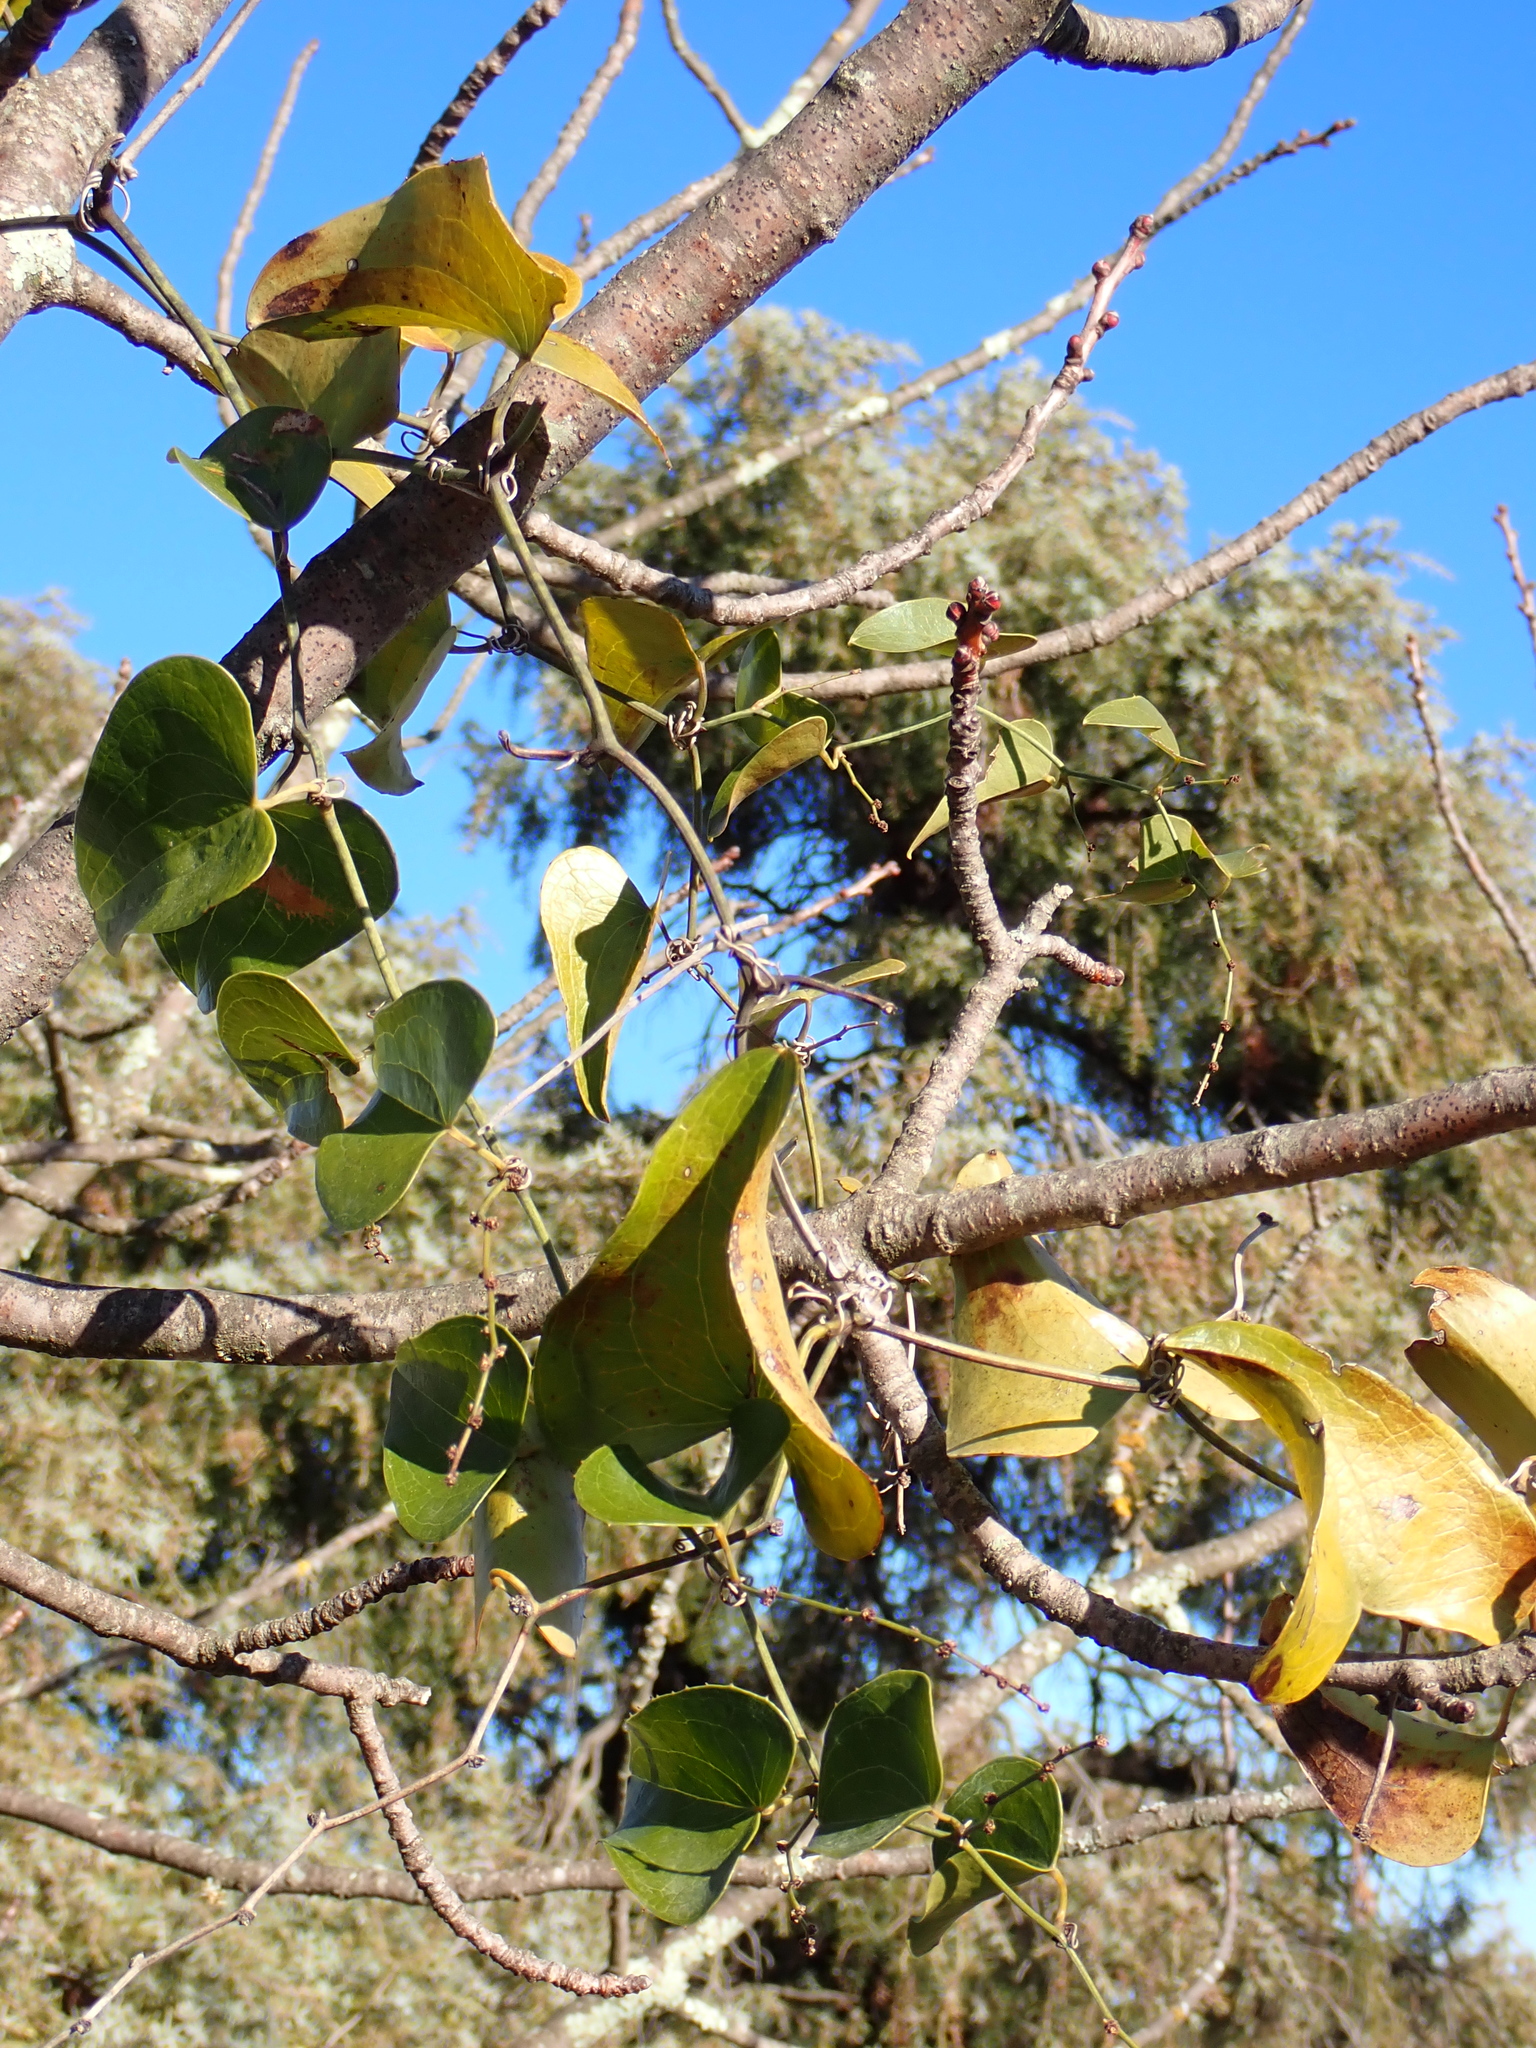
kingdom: Plantae
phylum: Tracheophyta
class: Liliopsida
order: Liliales
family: Smilacaceae
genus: Smilax
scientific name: Smilax aspera
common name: Common smilax
